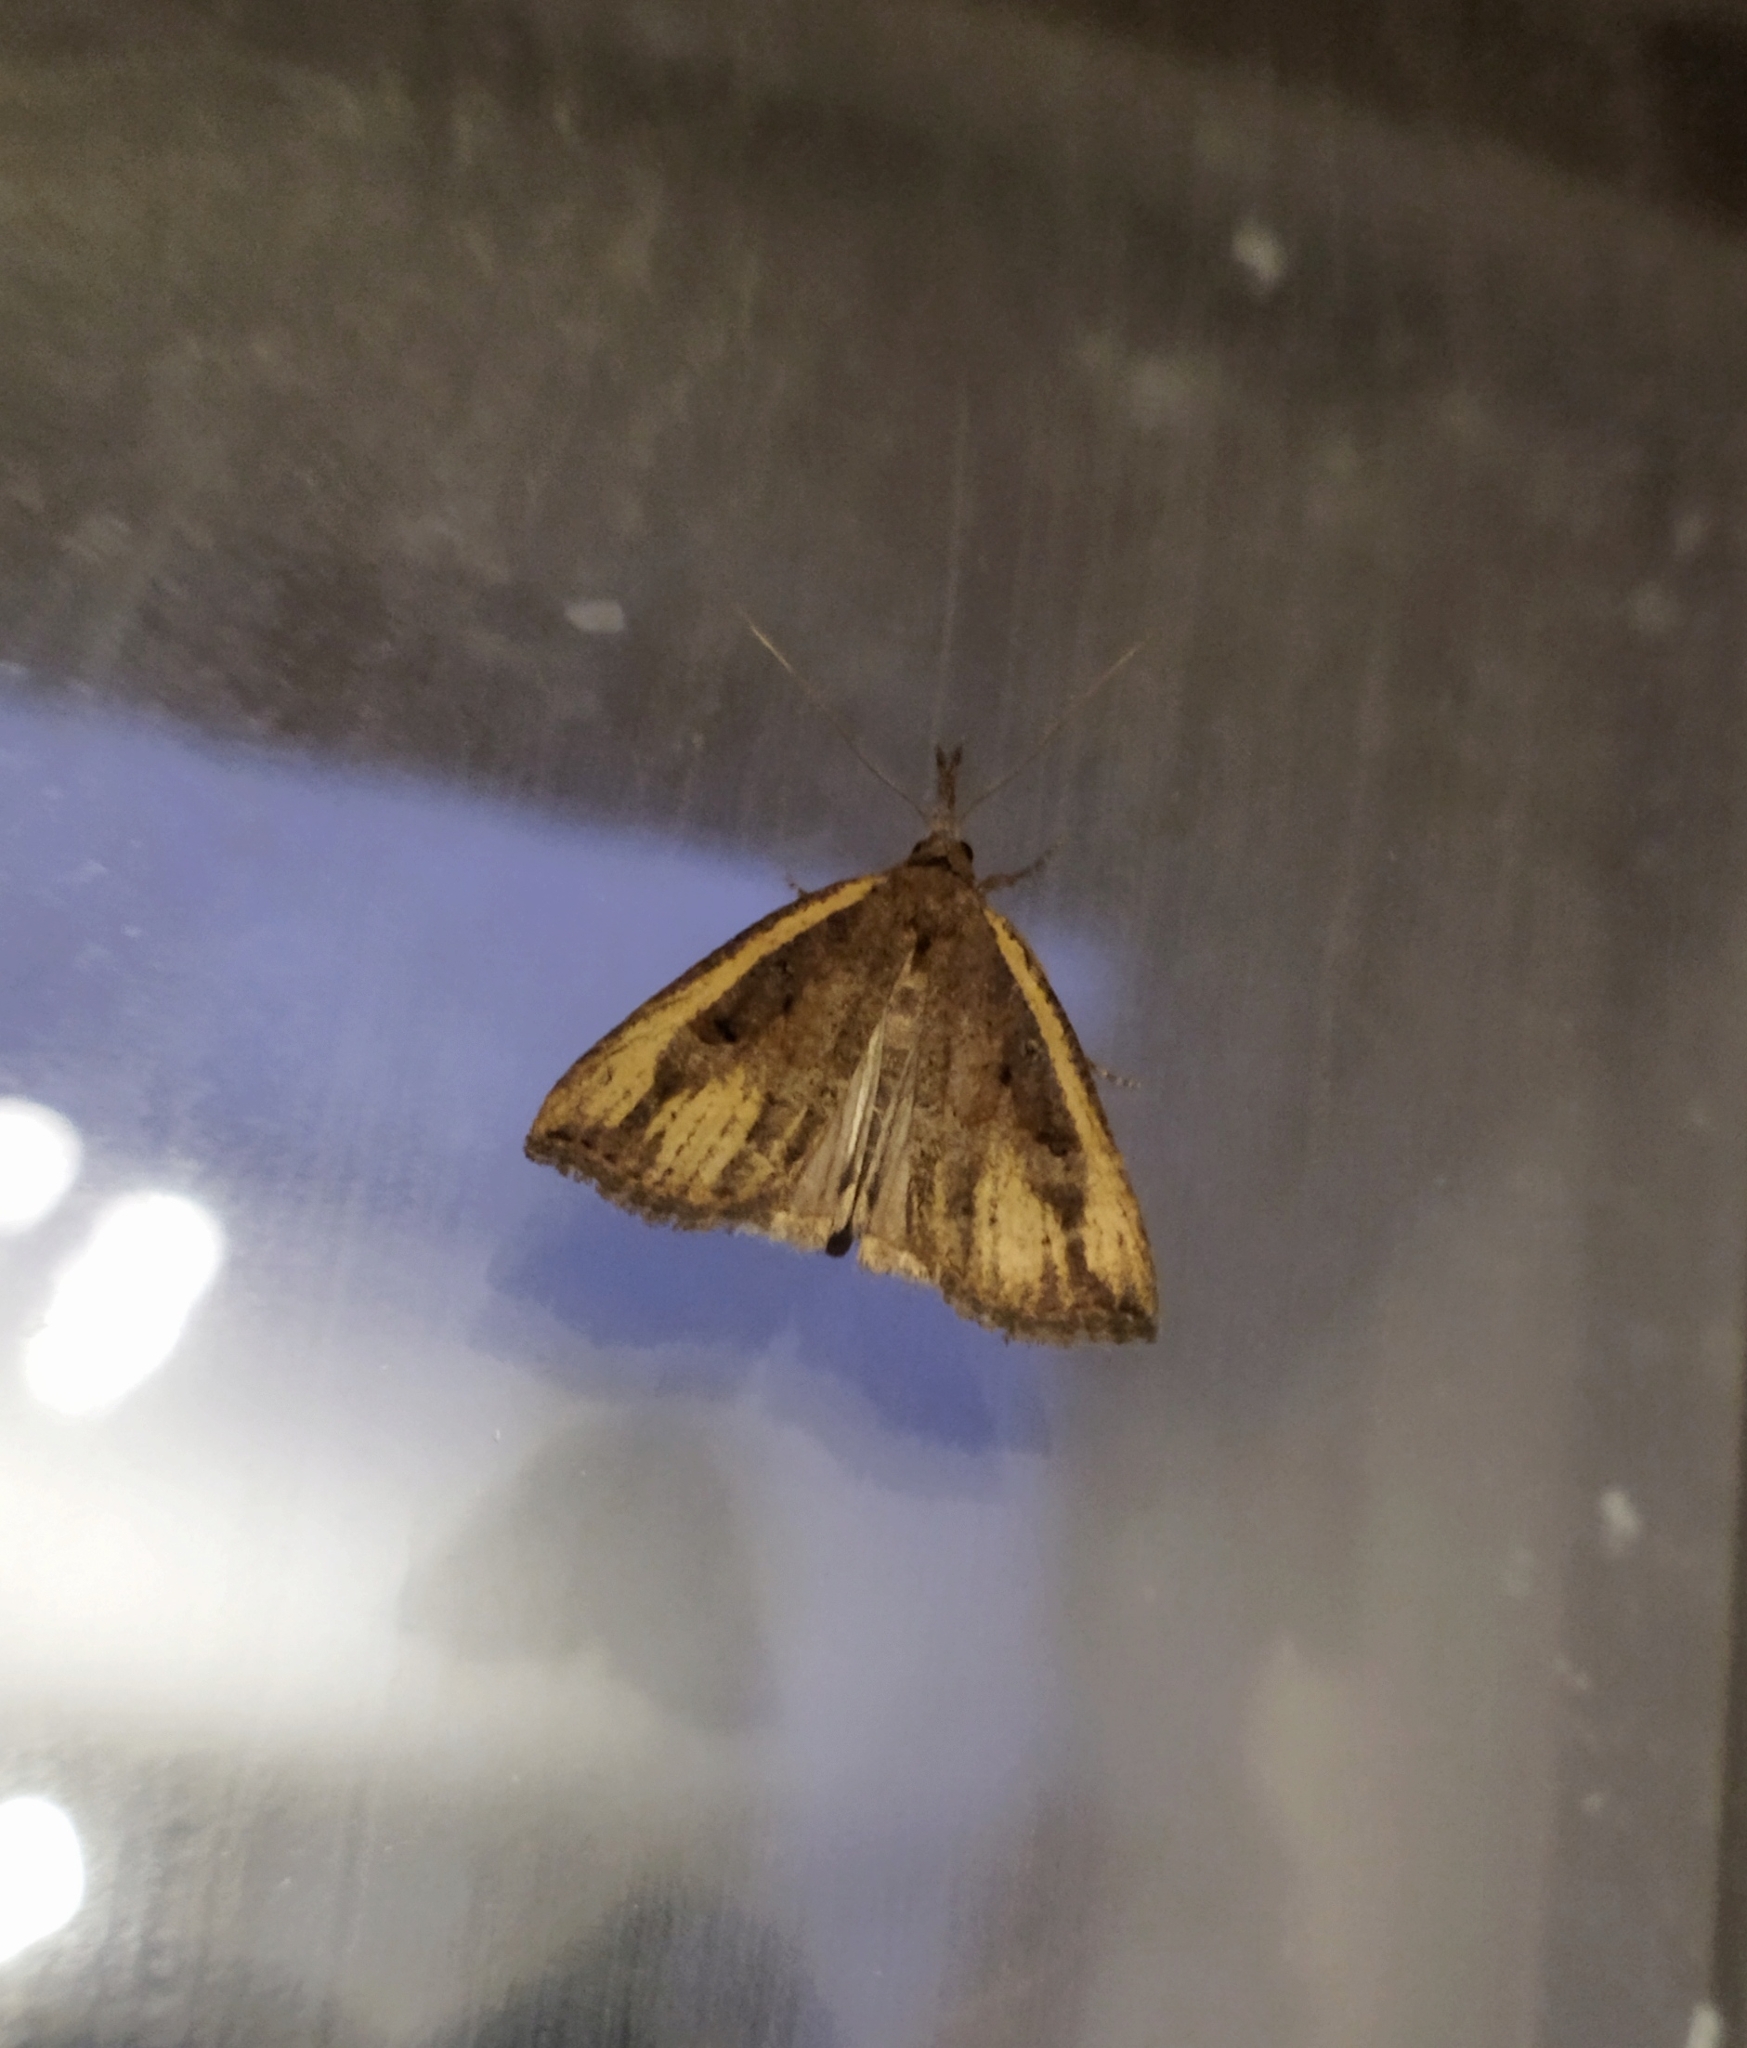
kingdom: Animalia
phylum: Arthropoda
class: Insecta
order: Lepidoptera
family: Erebidae
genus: Hypena
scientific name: Hypena rostralis
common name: Buttoned snout
